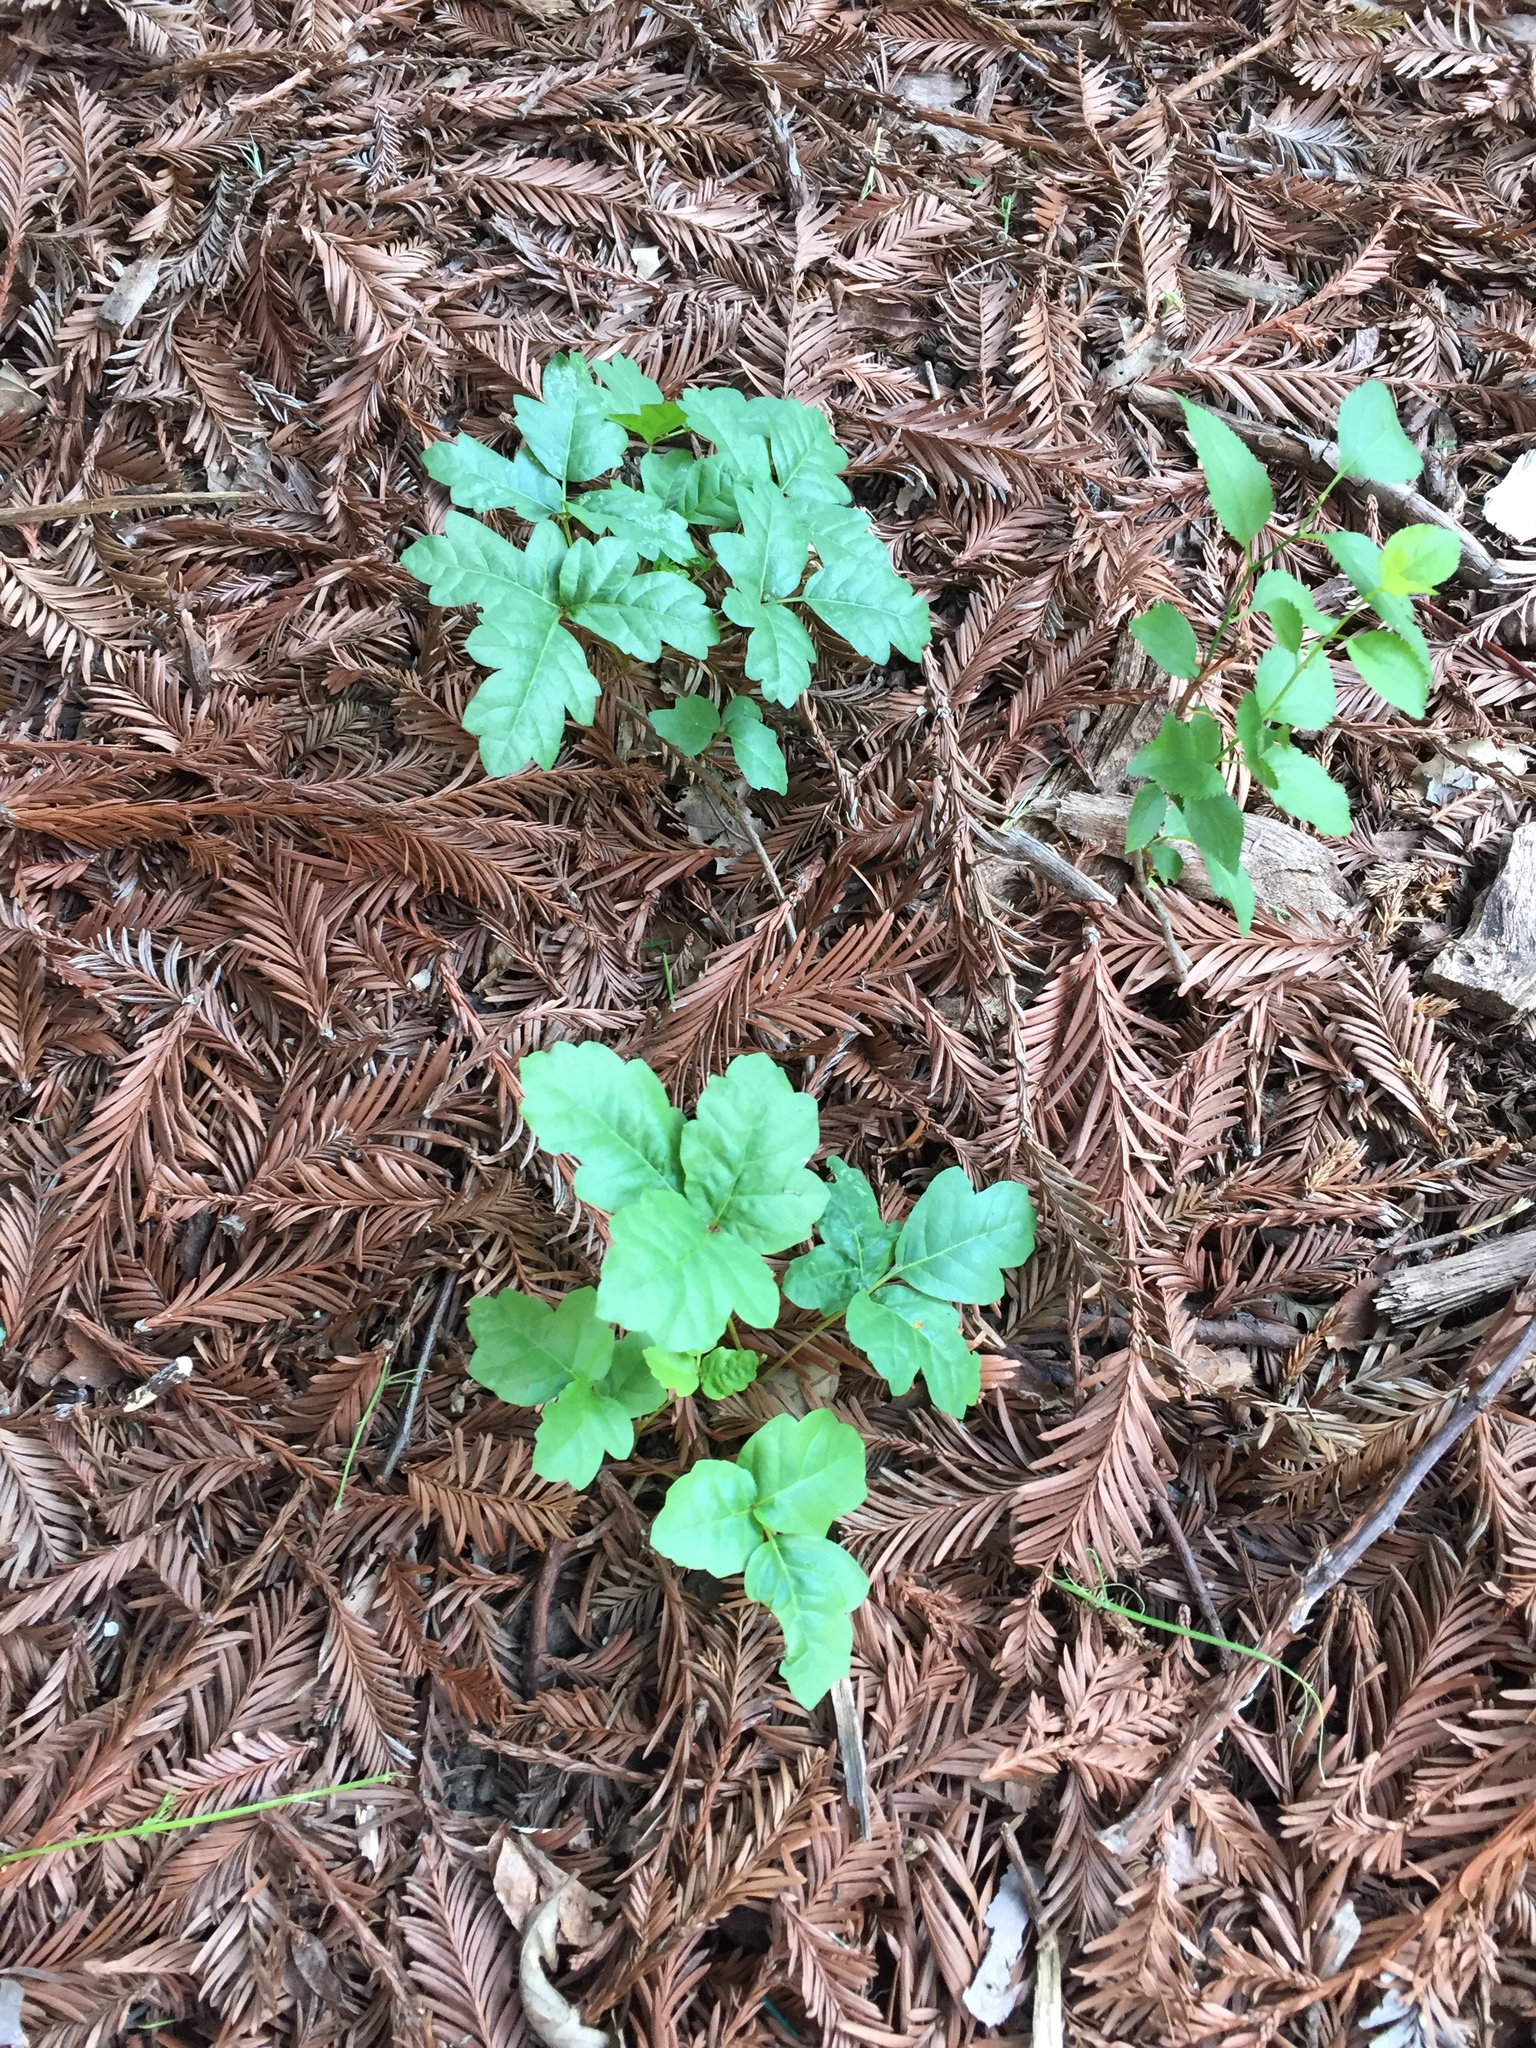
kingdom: Plantae
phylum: Tracheophyta
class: Magnoliopsida
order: Sapindales
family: Anacardiaceae
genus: Toxicodendron
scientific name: Toxicodendron diversilobum
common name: Pacific poison-oak
